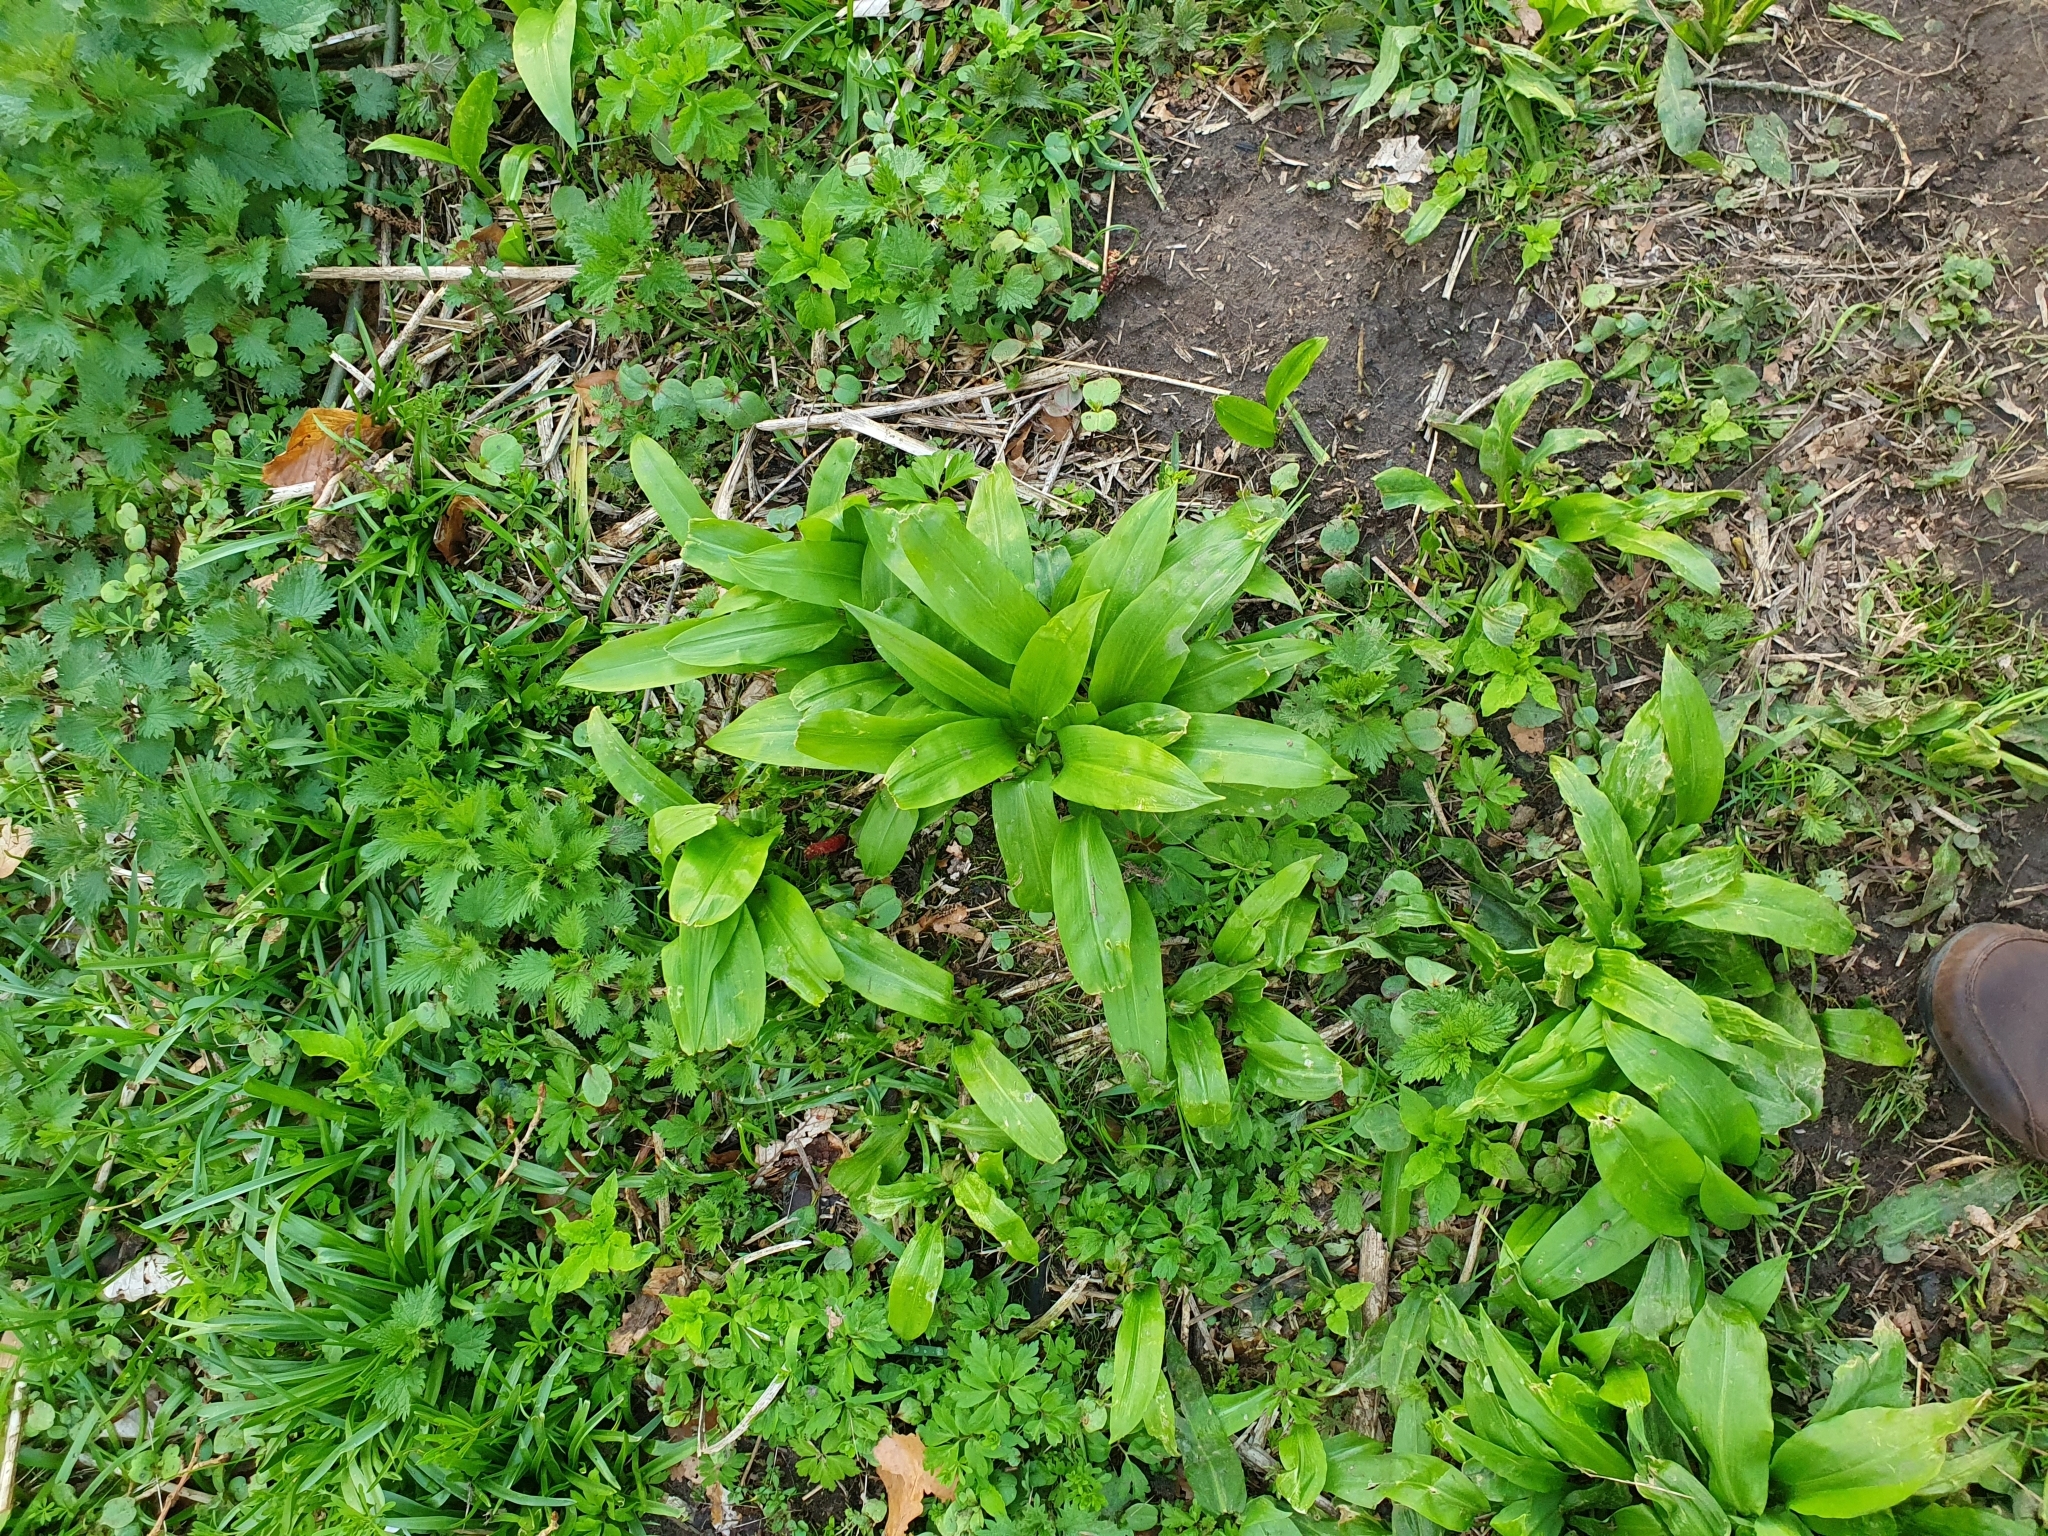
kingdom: Plantae
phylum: Tracheophyta
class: Liliopsida
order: Asparagales
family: Amaryllidaceae
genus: Allium
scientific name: Allium ursinum
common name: Ramsons
